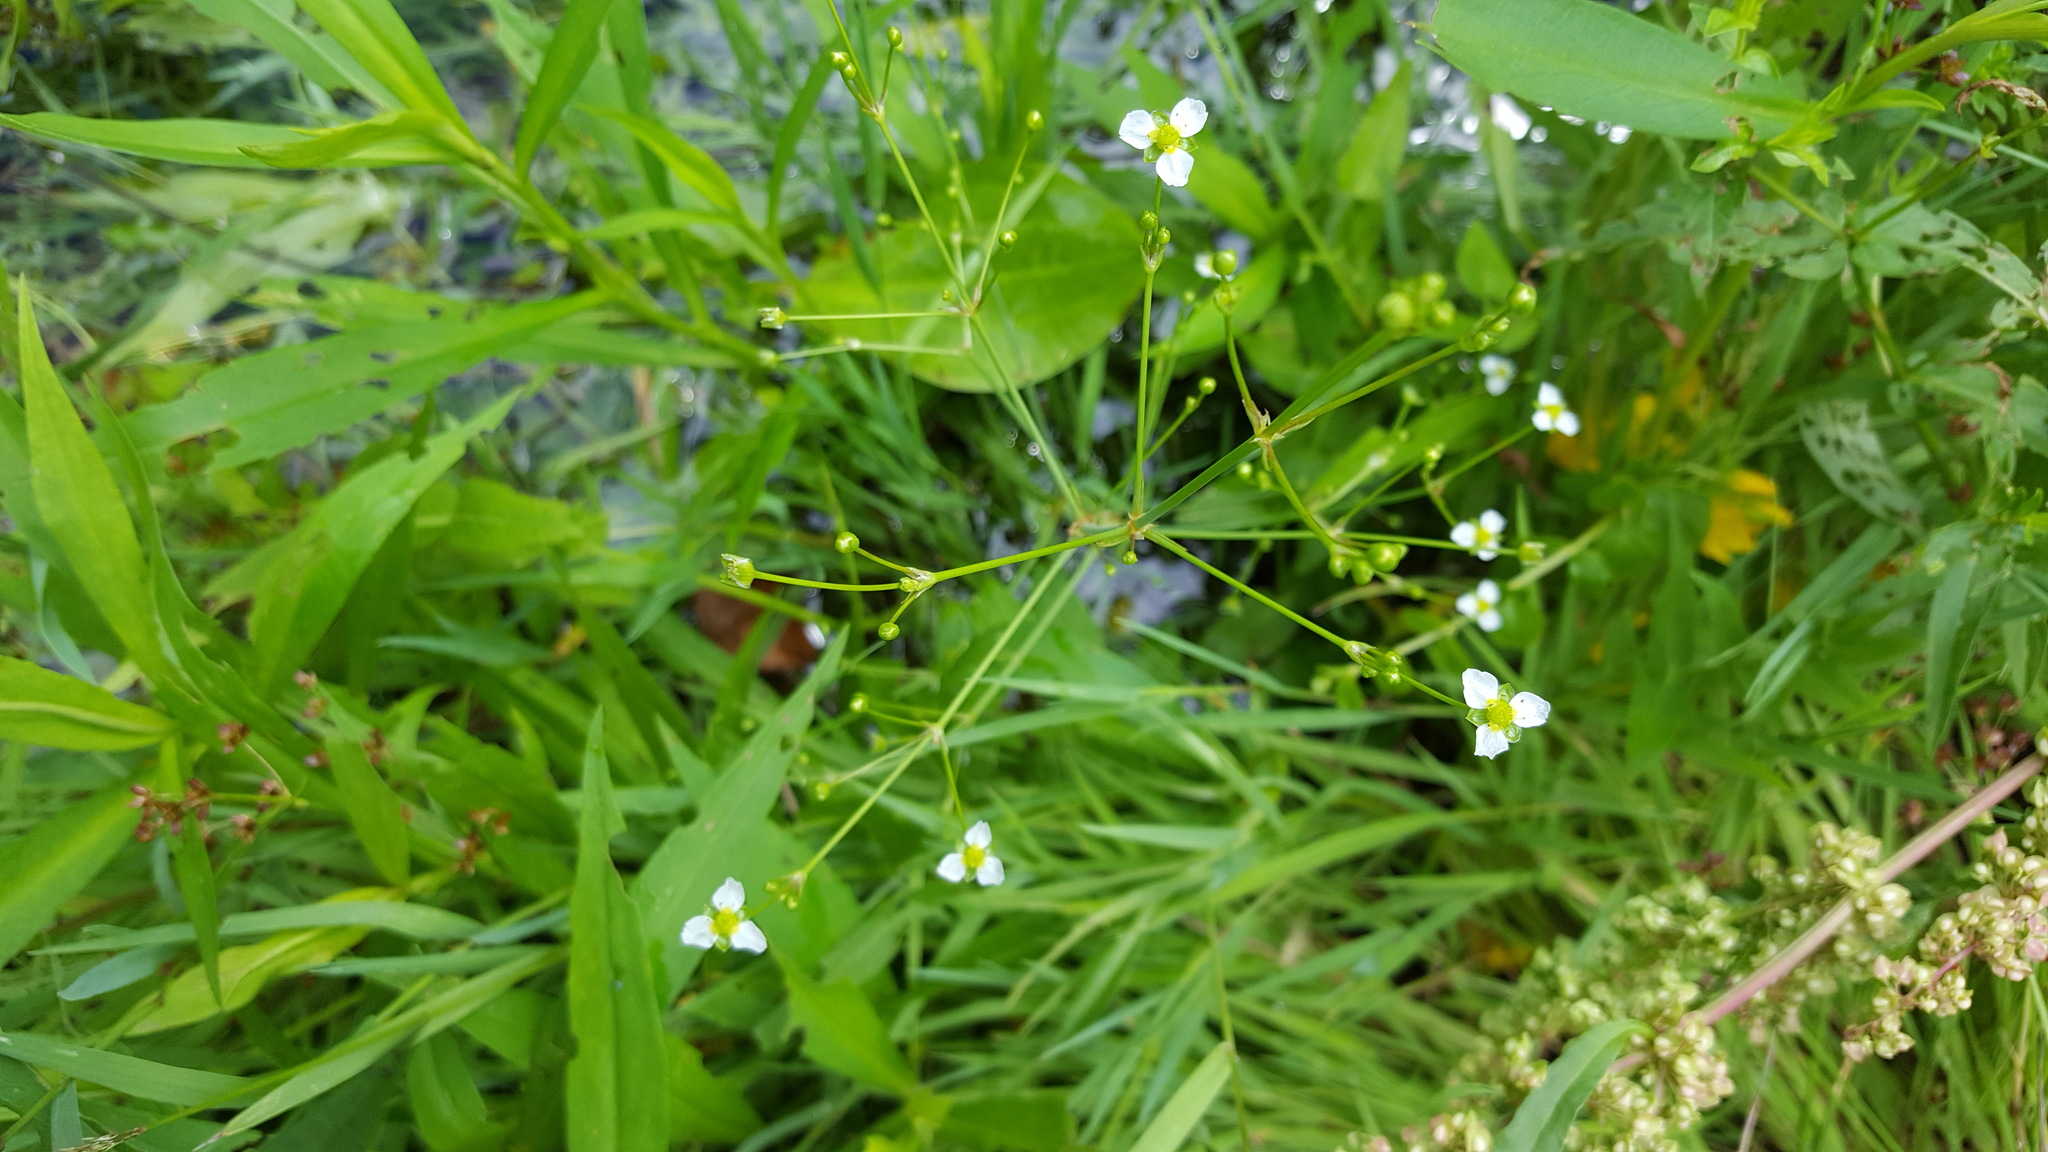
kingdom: Plantae
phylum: Tracheophyta
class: Liliopsida
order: Alismatales
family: Alismataceae
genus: Alisma
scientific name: Alisma subcordatum
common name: Southern water-plantain
